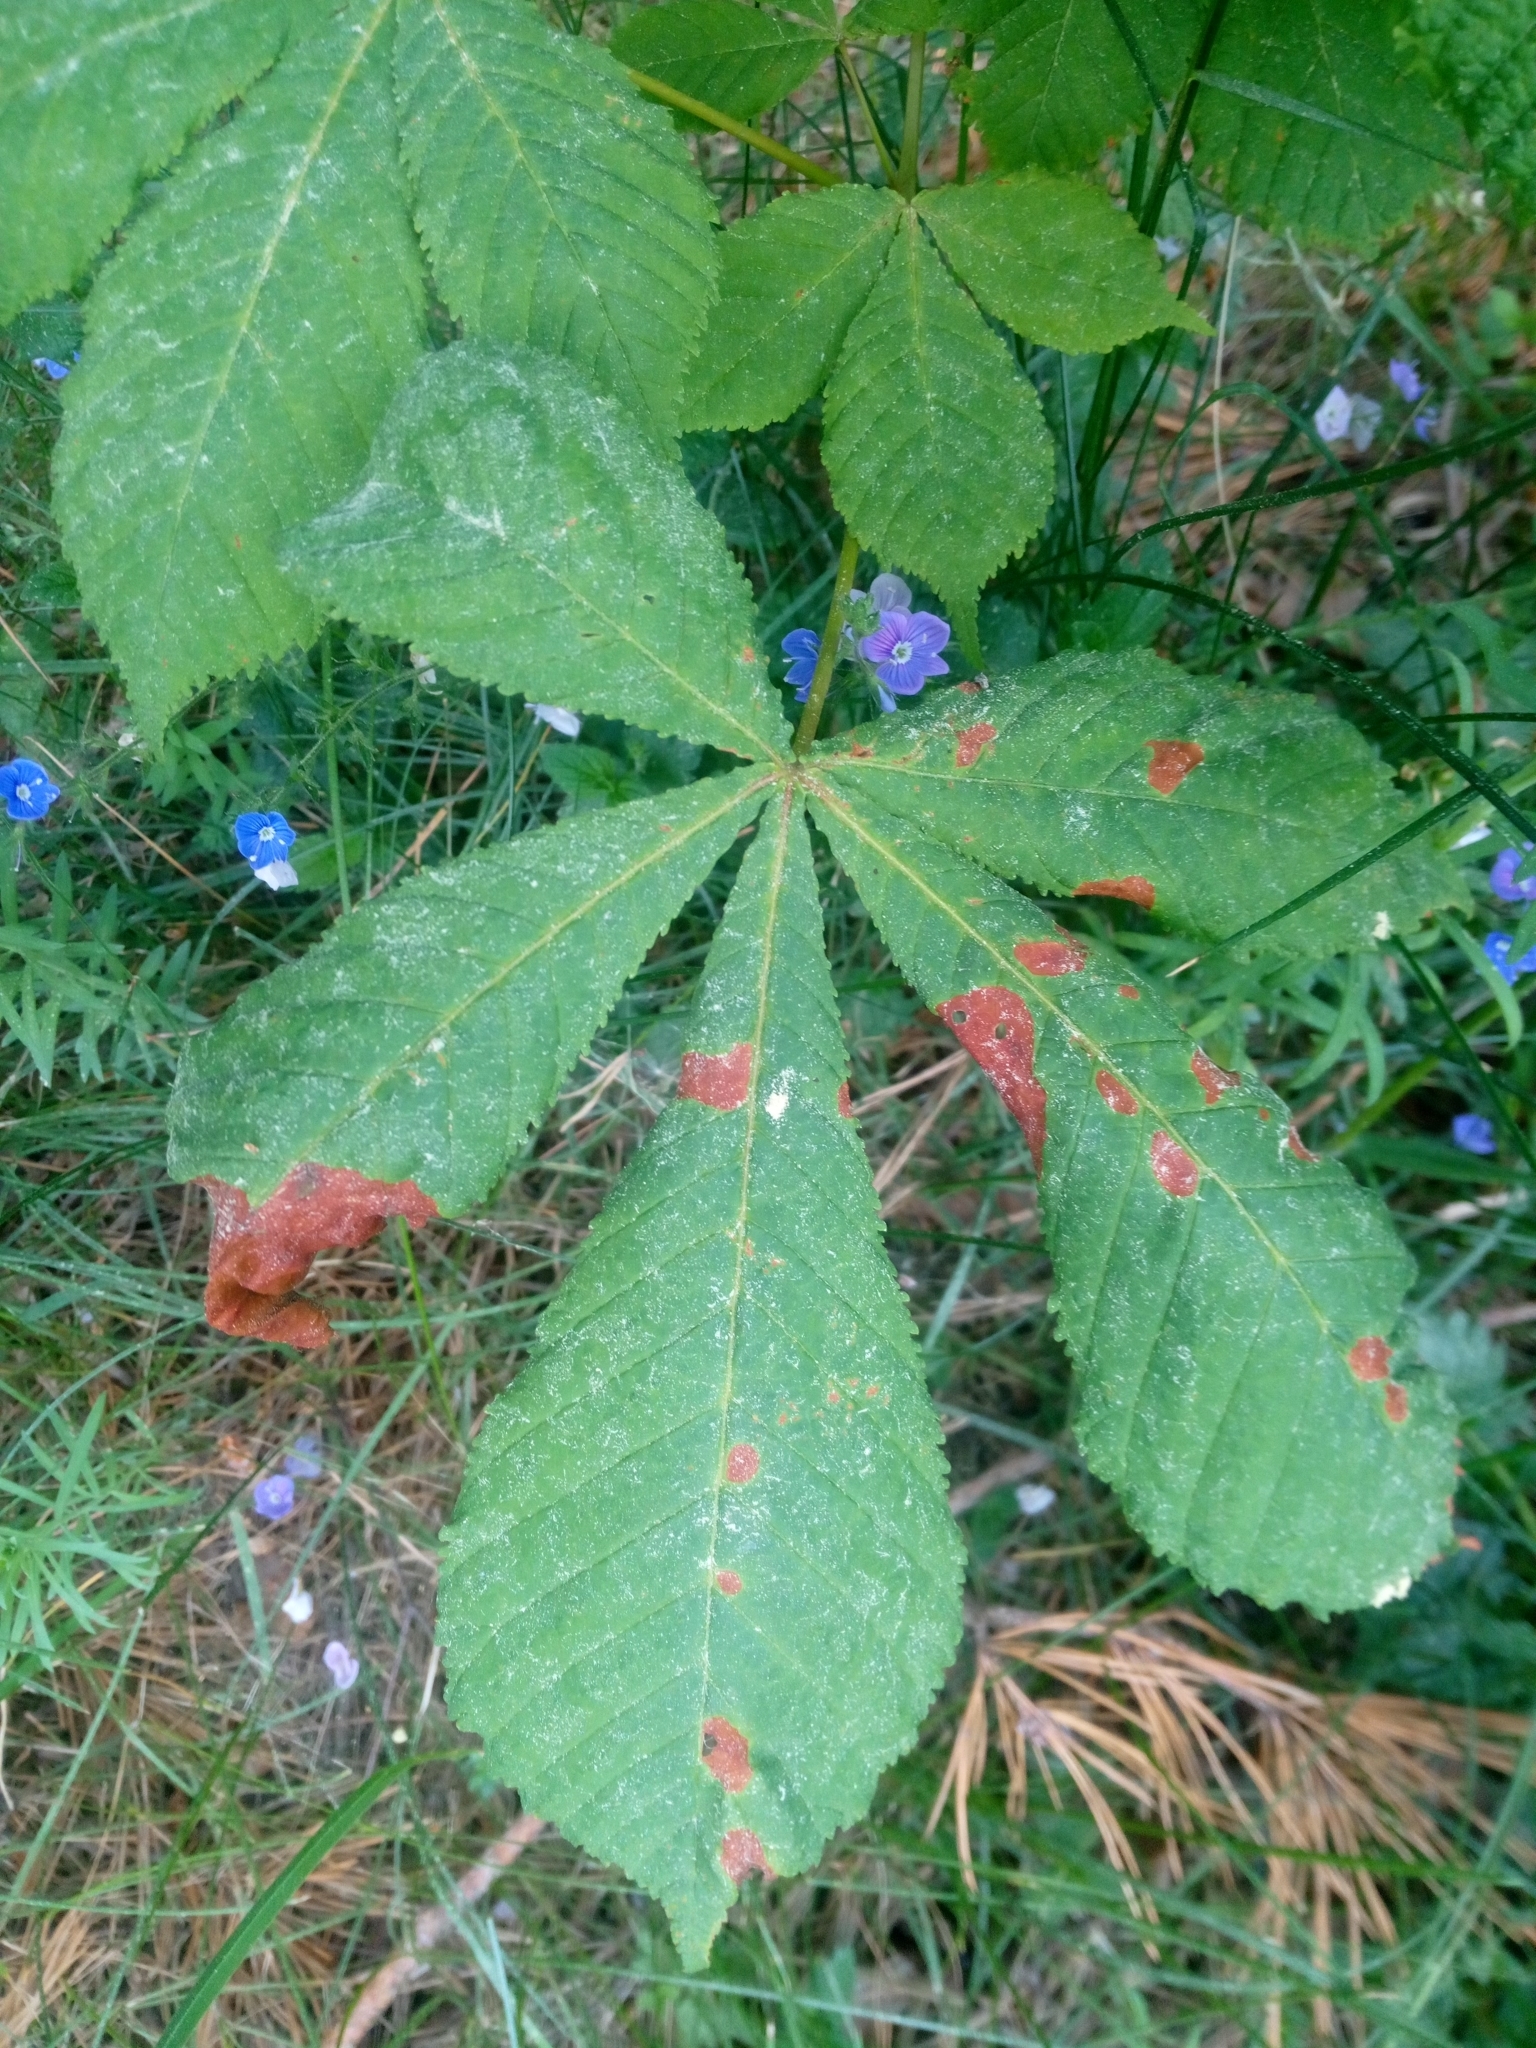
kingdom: Animalia
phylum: Arthropoda
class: Insecta
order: Lepidoptera
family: Gracillariidae
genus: Cameraria
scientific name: Cameraria ohridella
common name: Horse-chestnut leaf-miner
